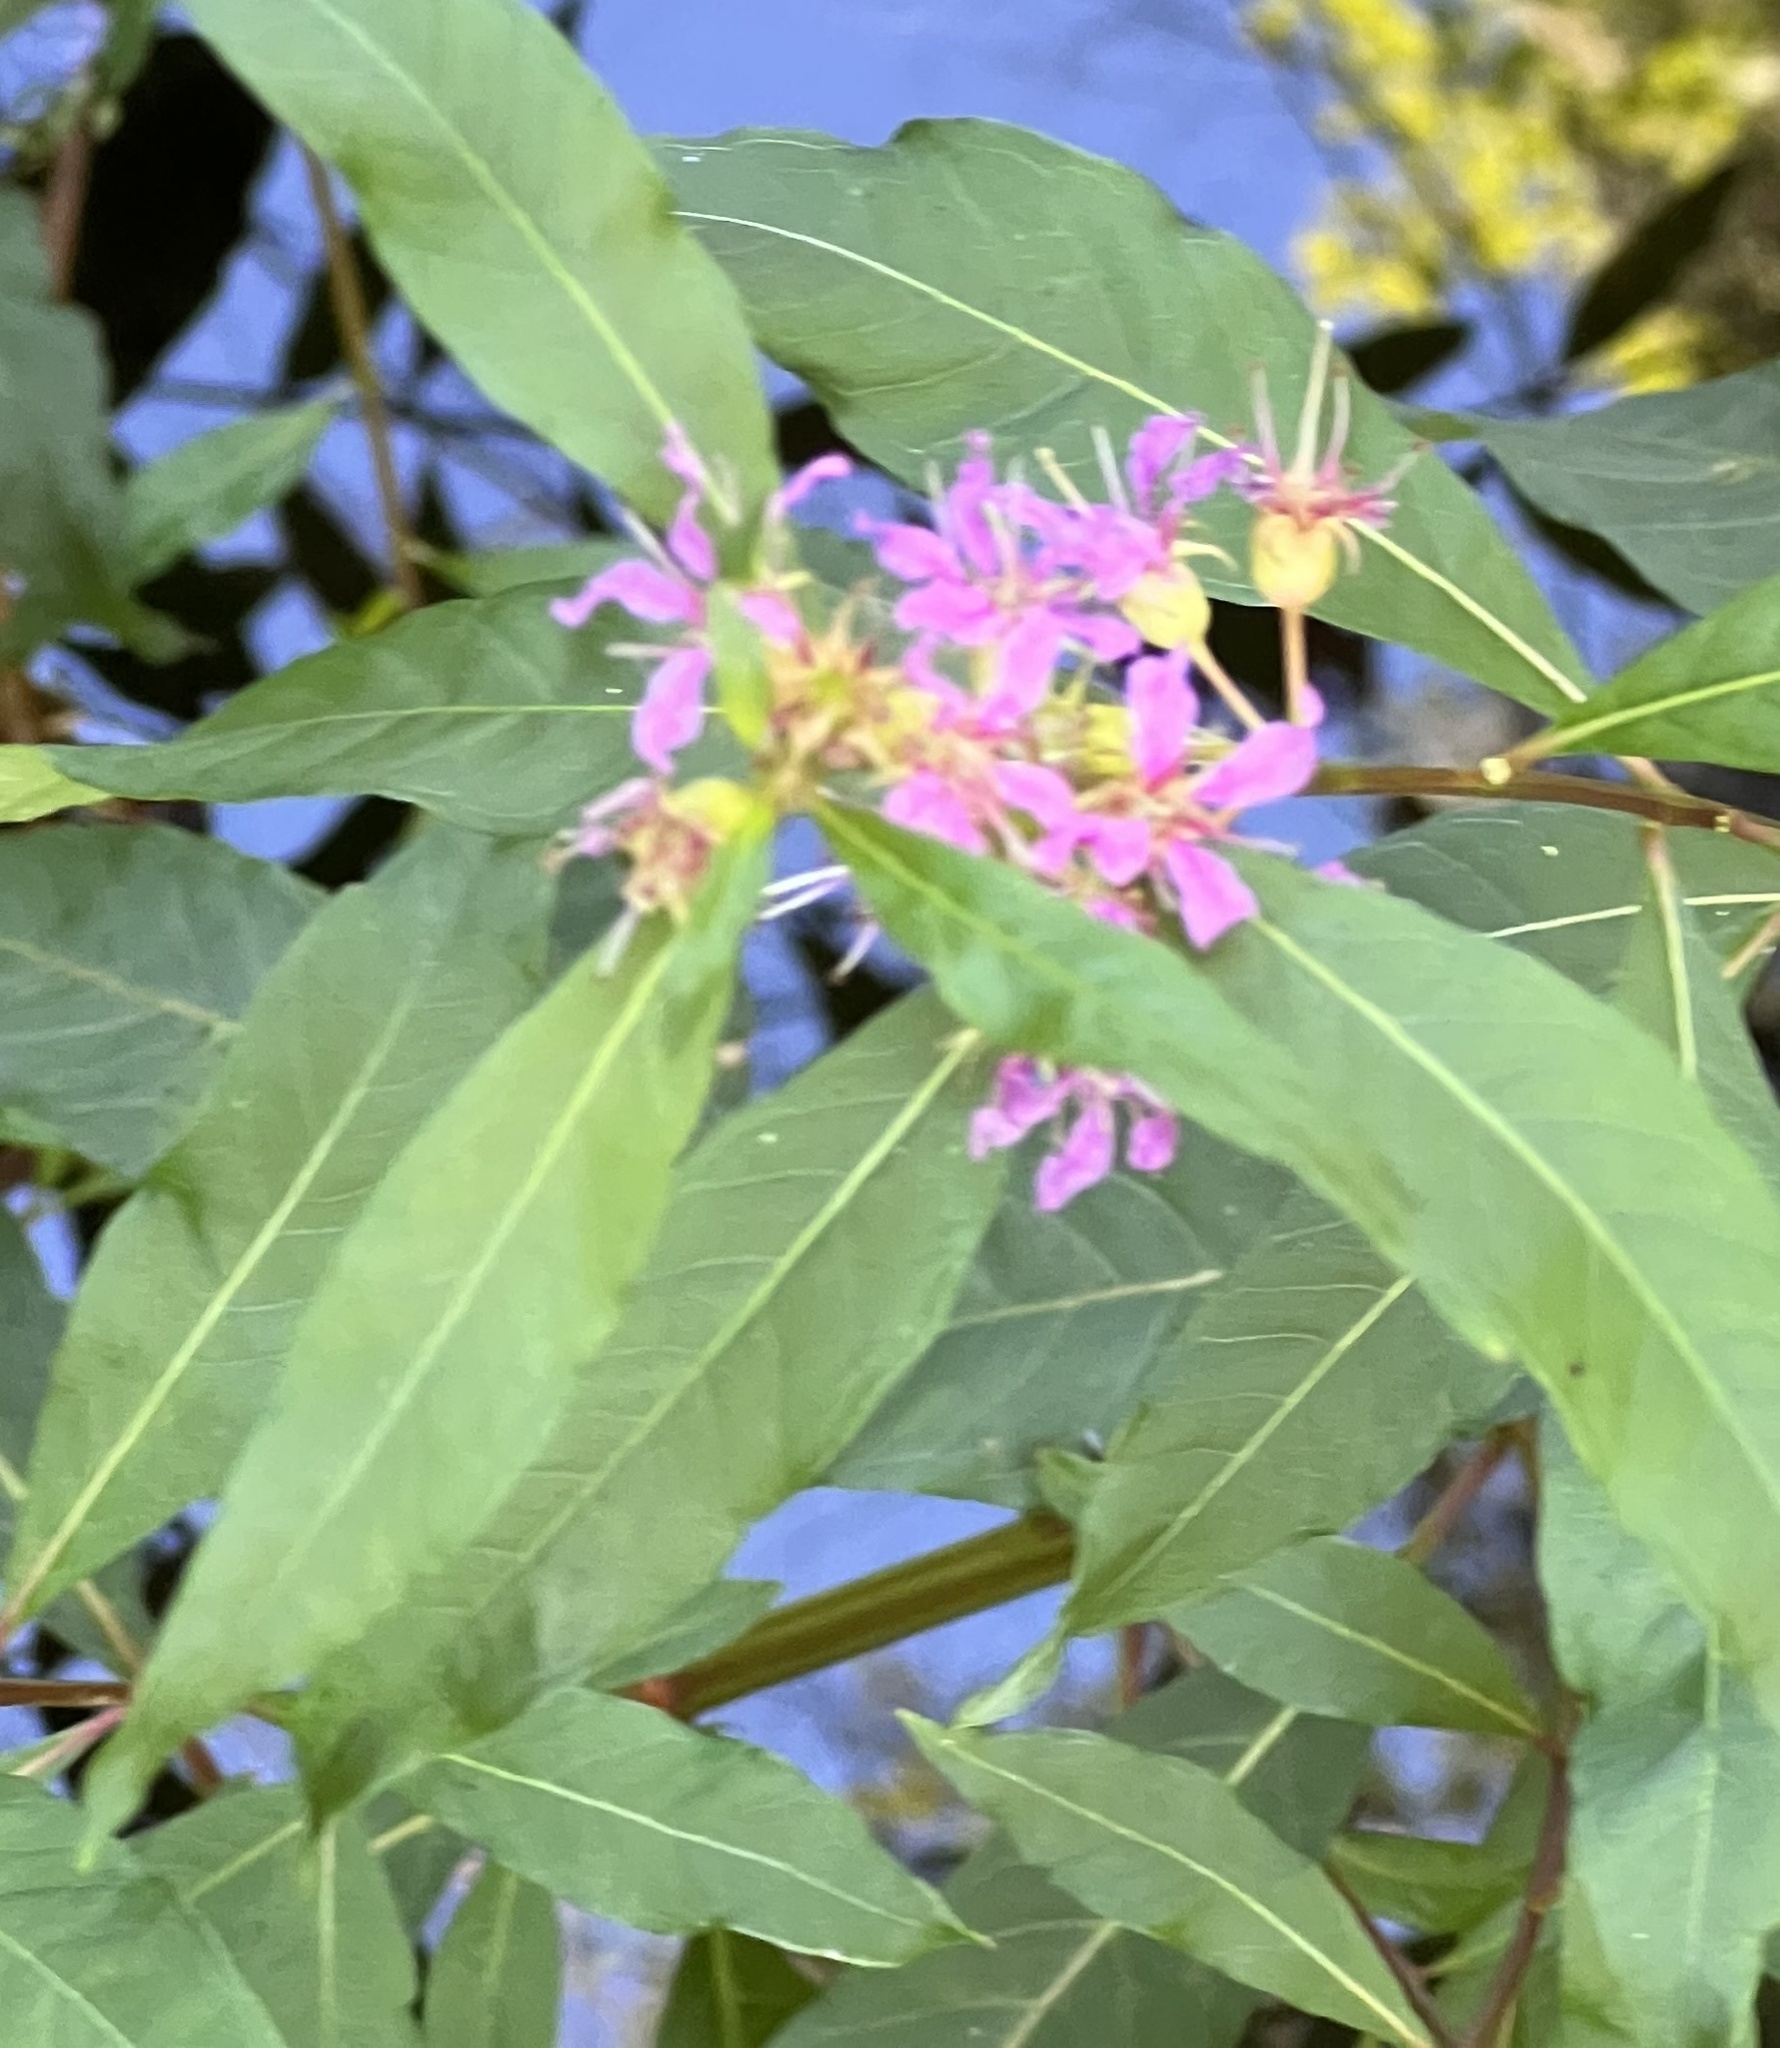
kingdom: Plantae
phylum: Tracheophyta
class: Magnoliopsida
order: Myrtales
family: Lythraceae
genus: Decodon
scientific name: Decodon verticillatus
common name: Hairy swamp loosestrife
